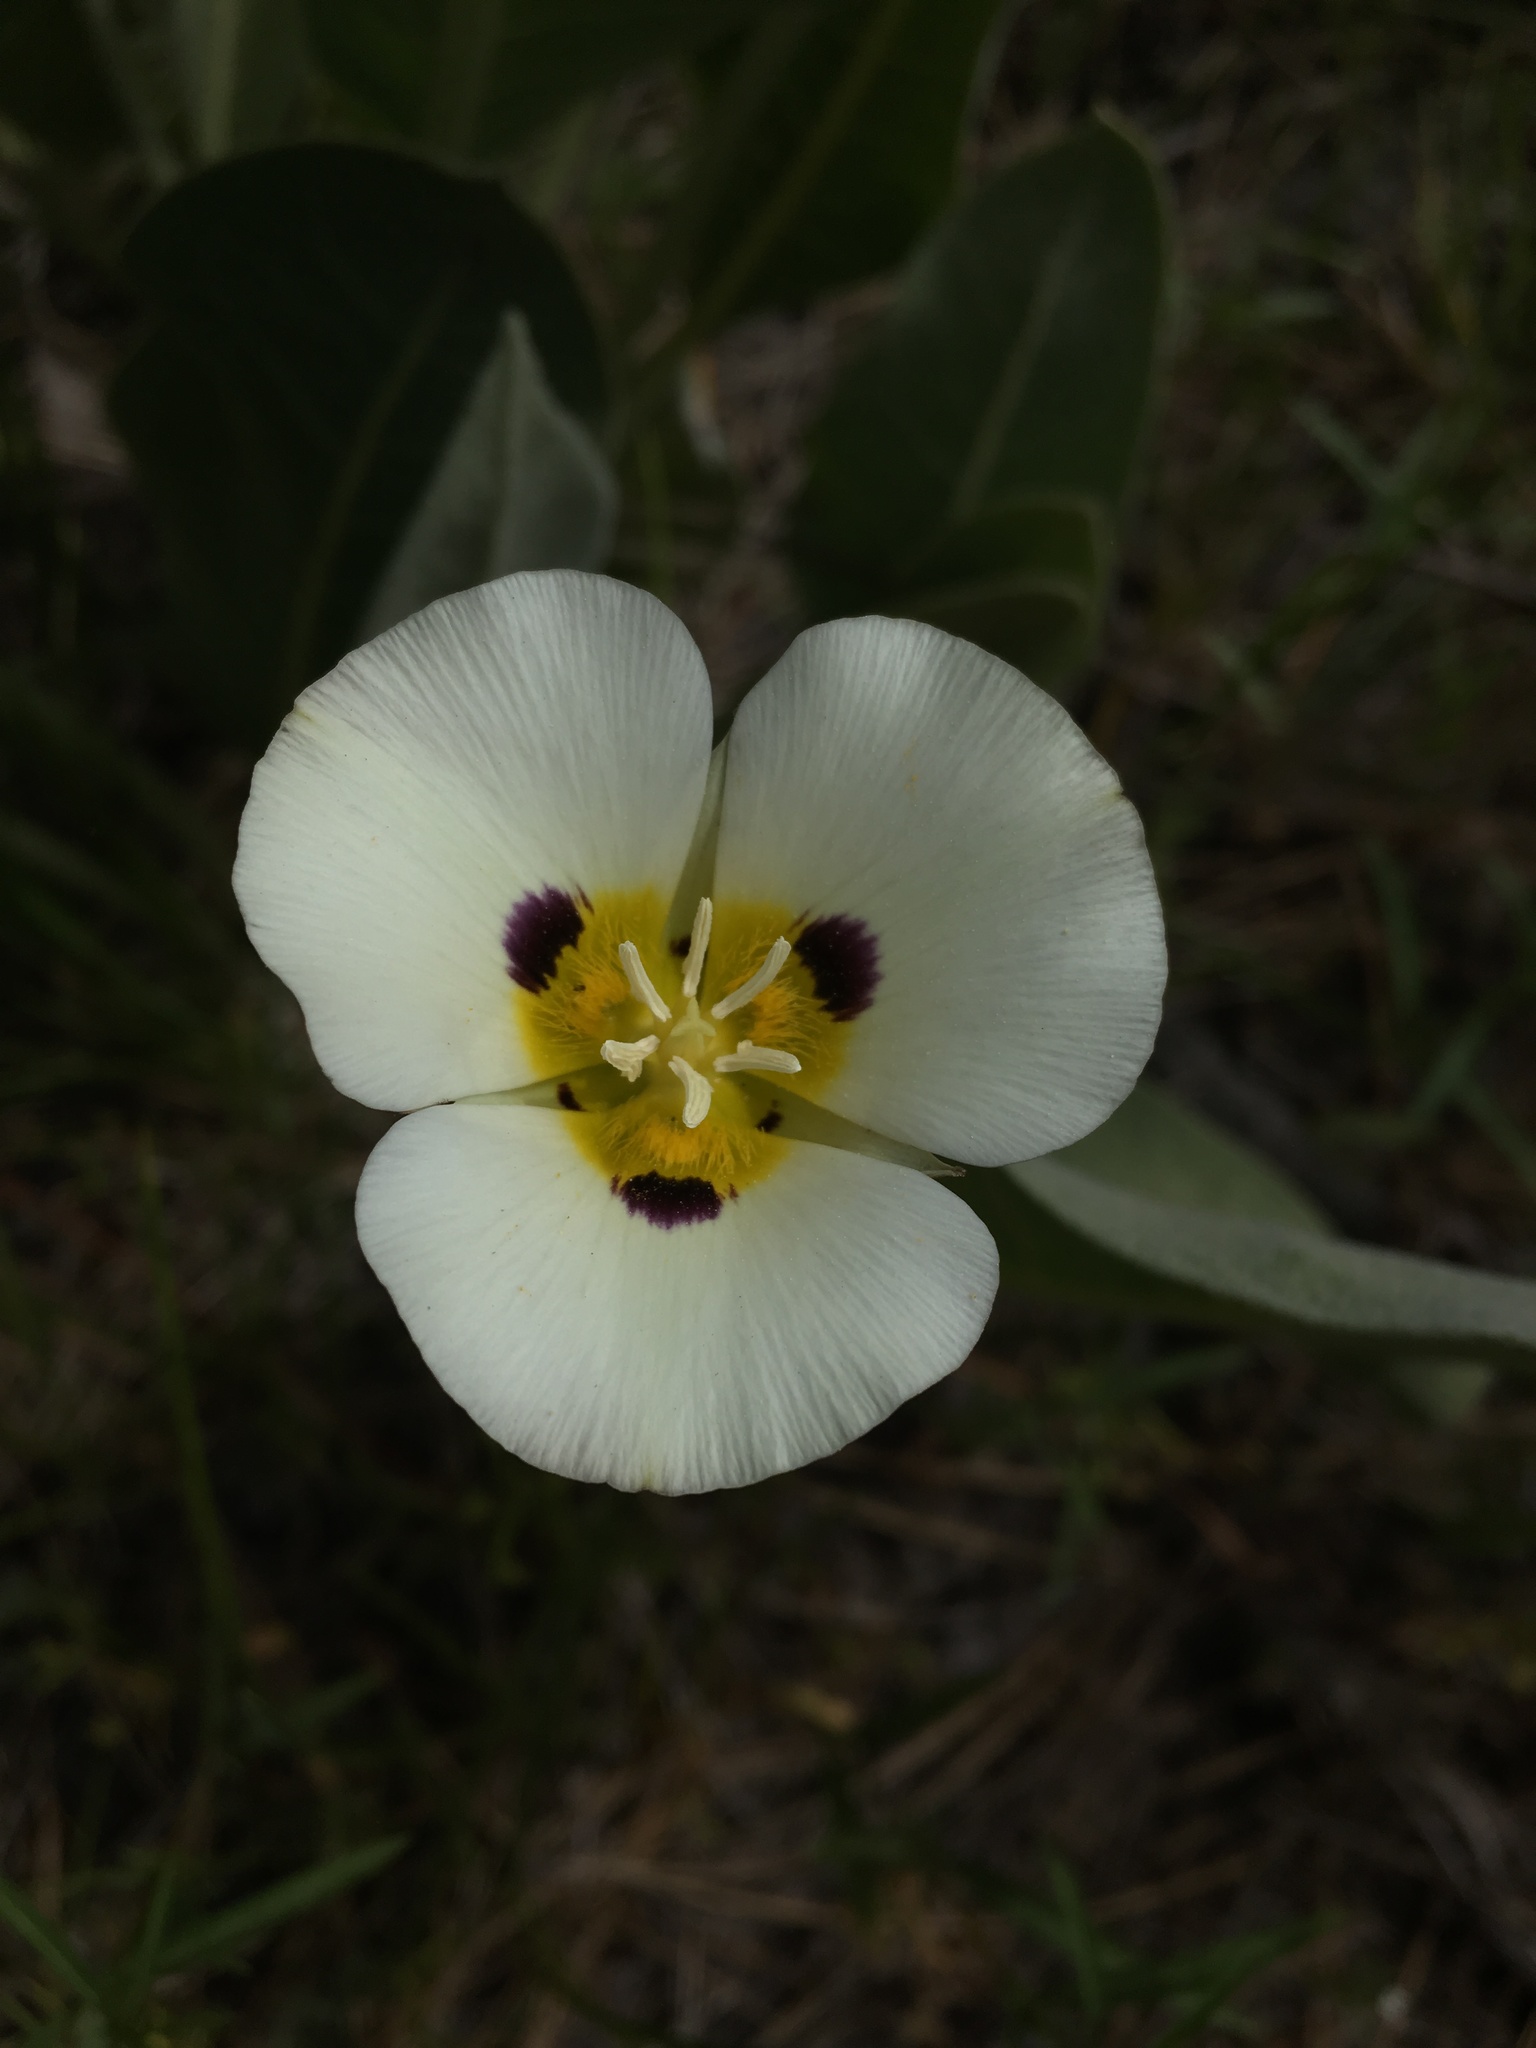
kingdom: Plantae
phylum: Tracheophyta
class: Liliopsida
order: Liliales
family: Liliaceae
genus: Calochortus
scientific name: Calochortus leichtlinii
